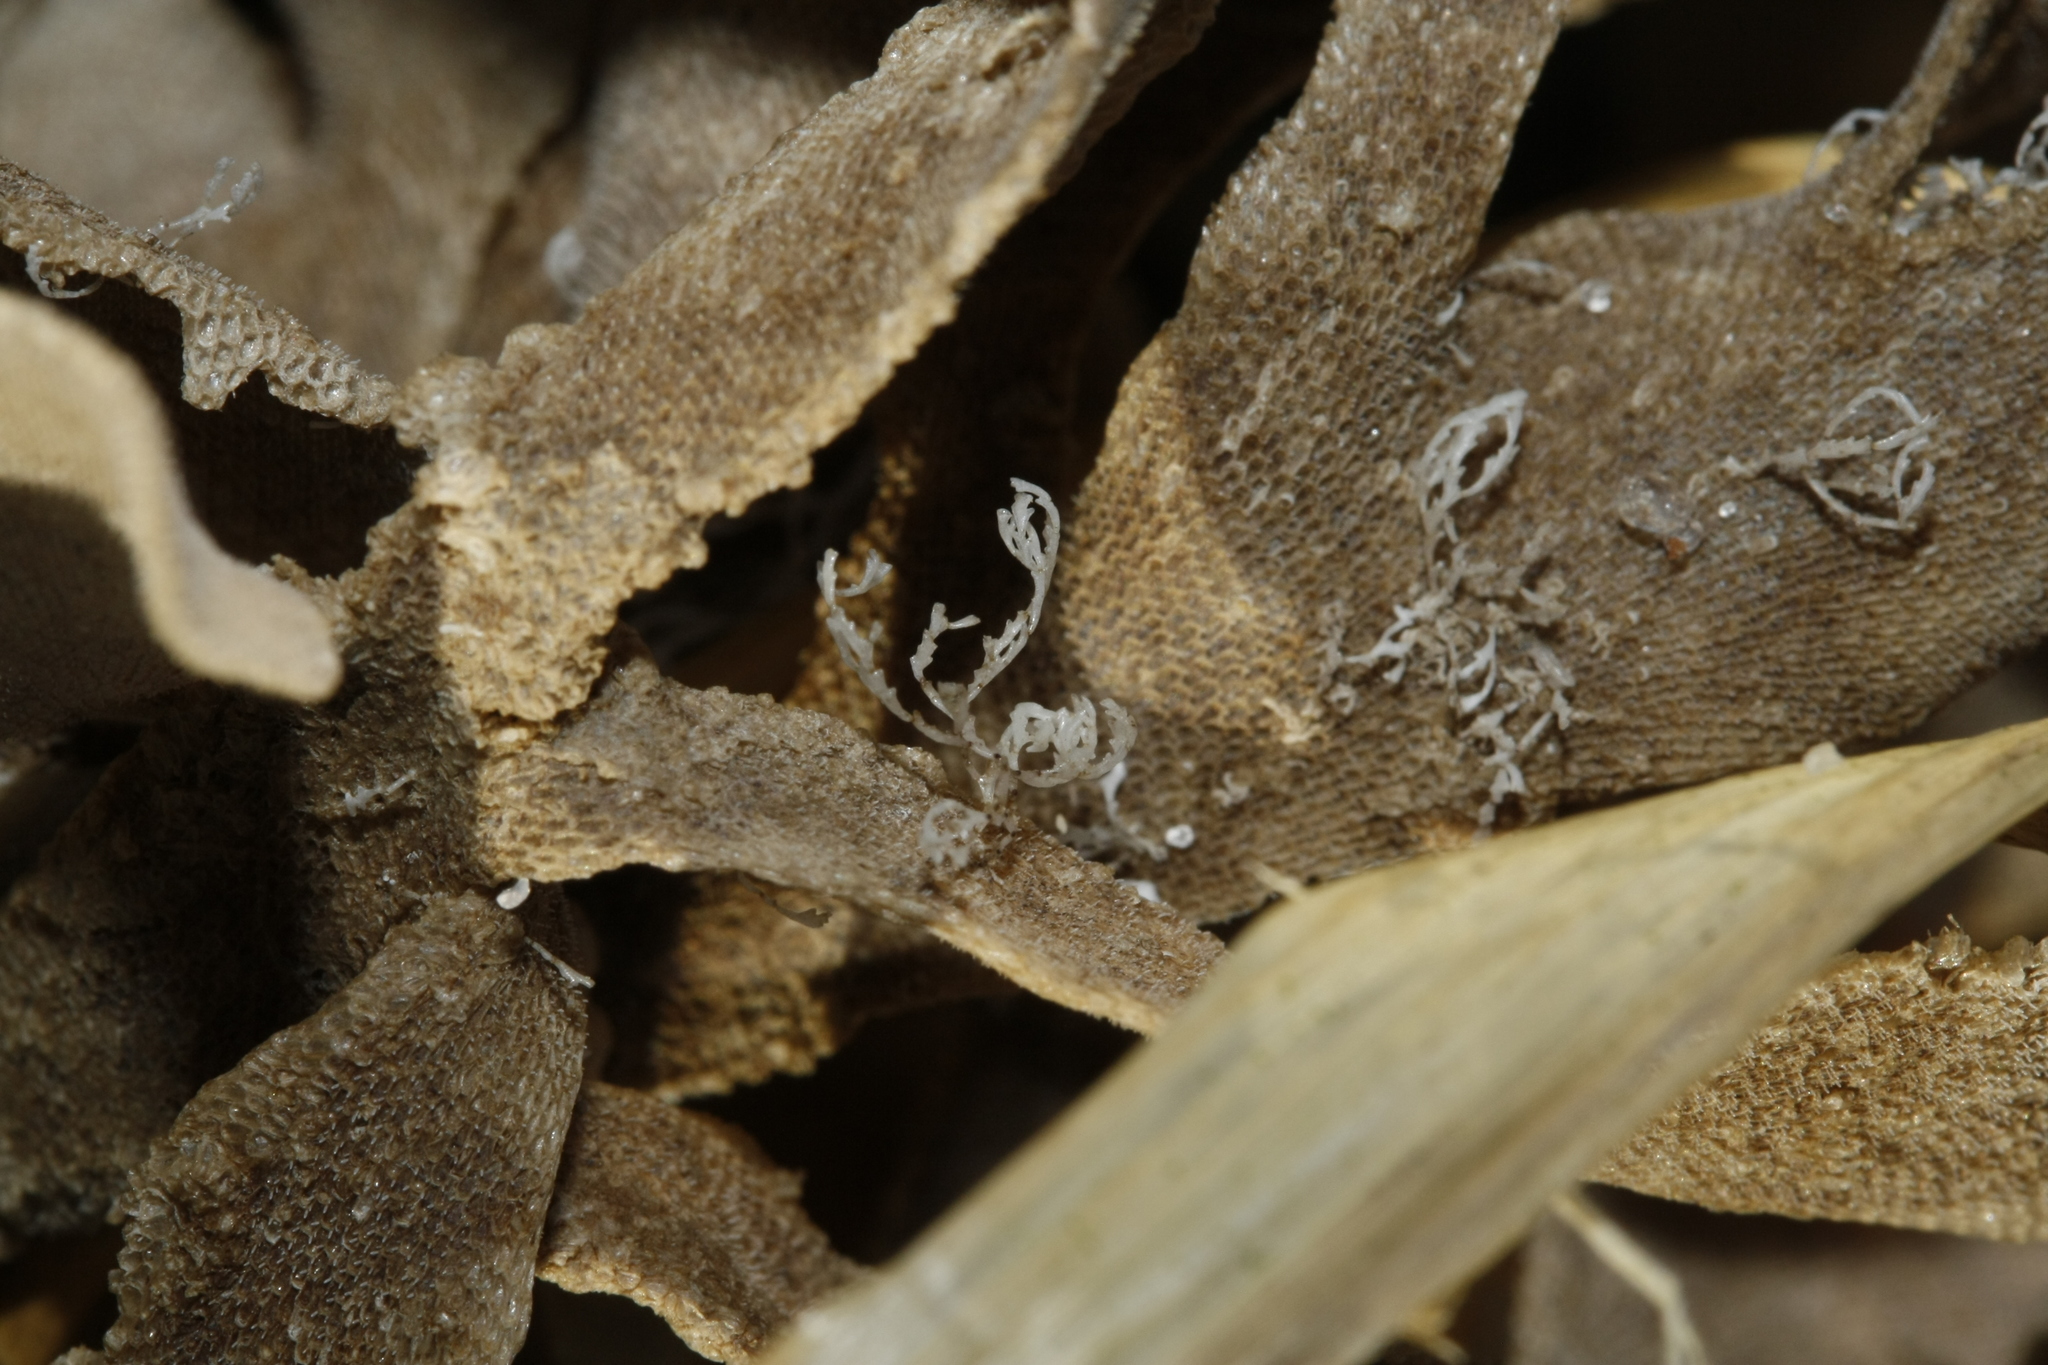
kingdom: Animalia
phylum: Bryozoa
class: Stenolaemata
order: Cyclostomatida
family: Crisiidae
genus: Crisia
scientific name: Crisia eburnea
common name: Ivory bryozoan
